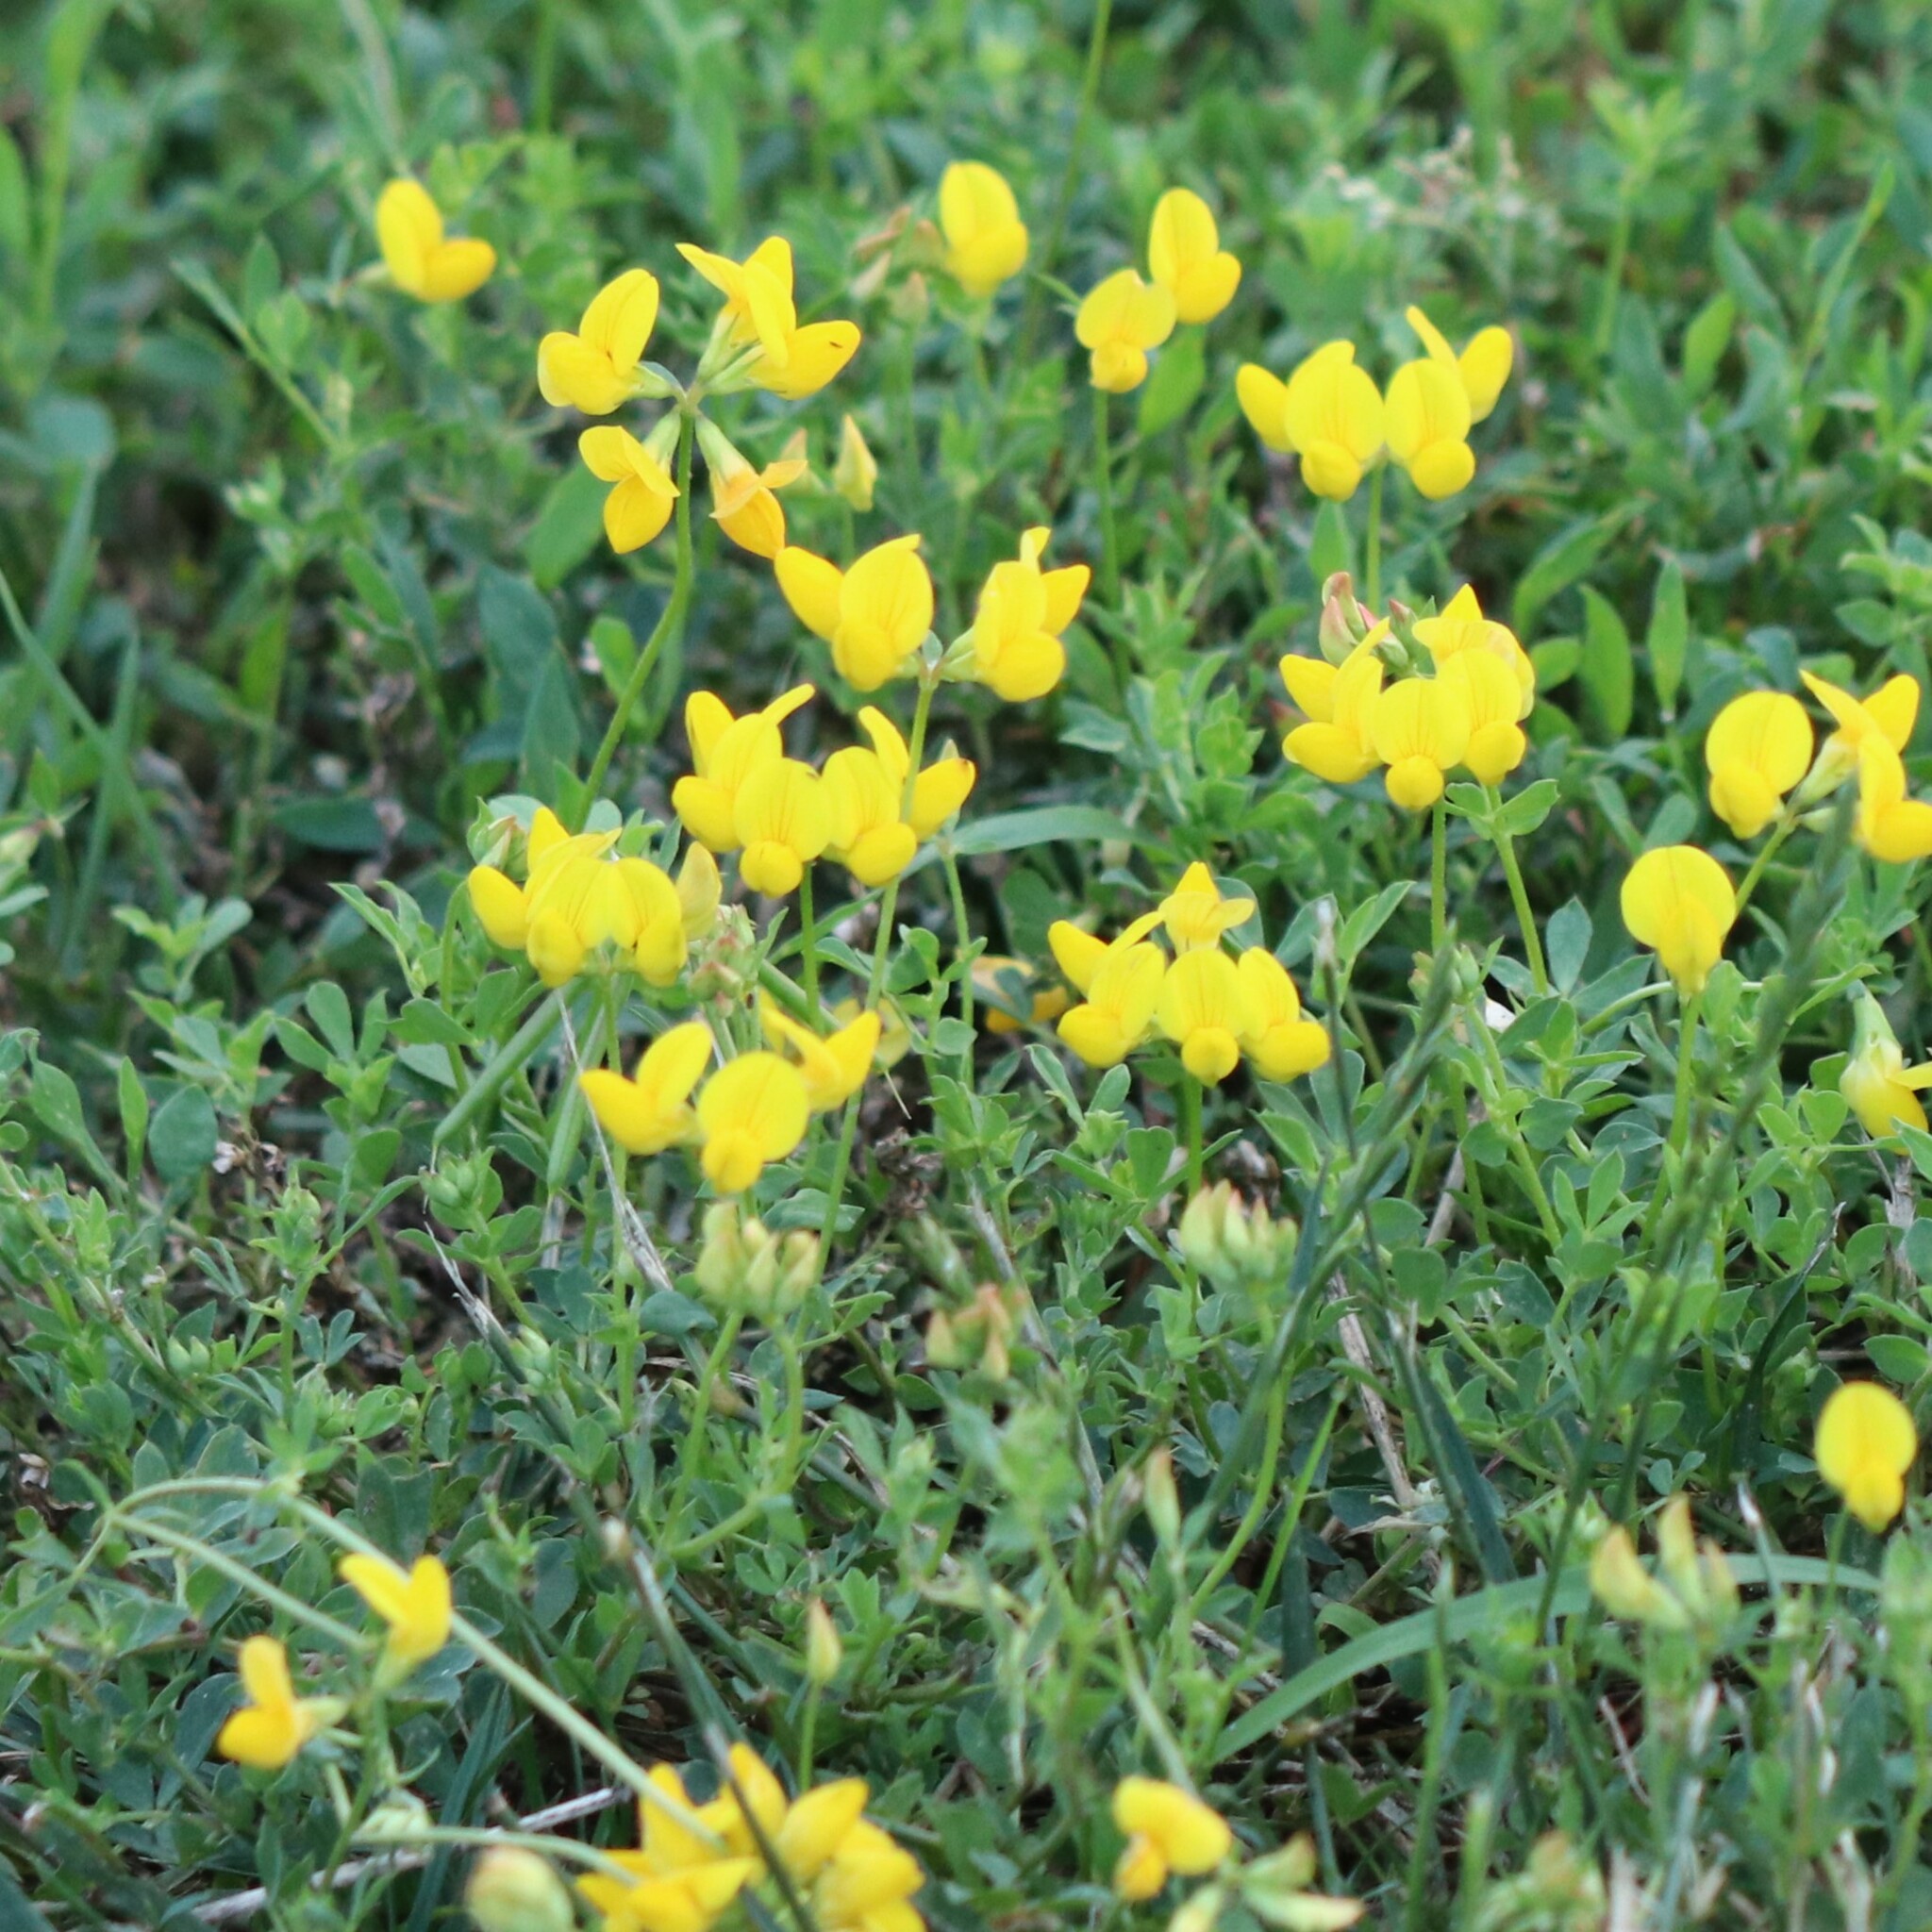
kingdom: Plantae
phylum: Tracheophyta
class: Magnoliopsida
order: Fabales
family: Fabaceae
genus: Lotus
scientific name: Lotus corniculatus
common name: Common bird's-foot-trefoil
